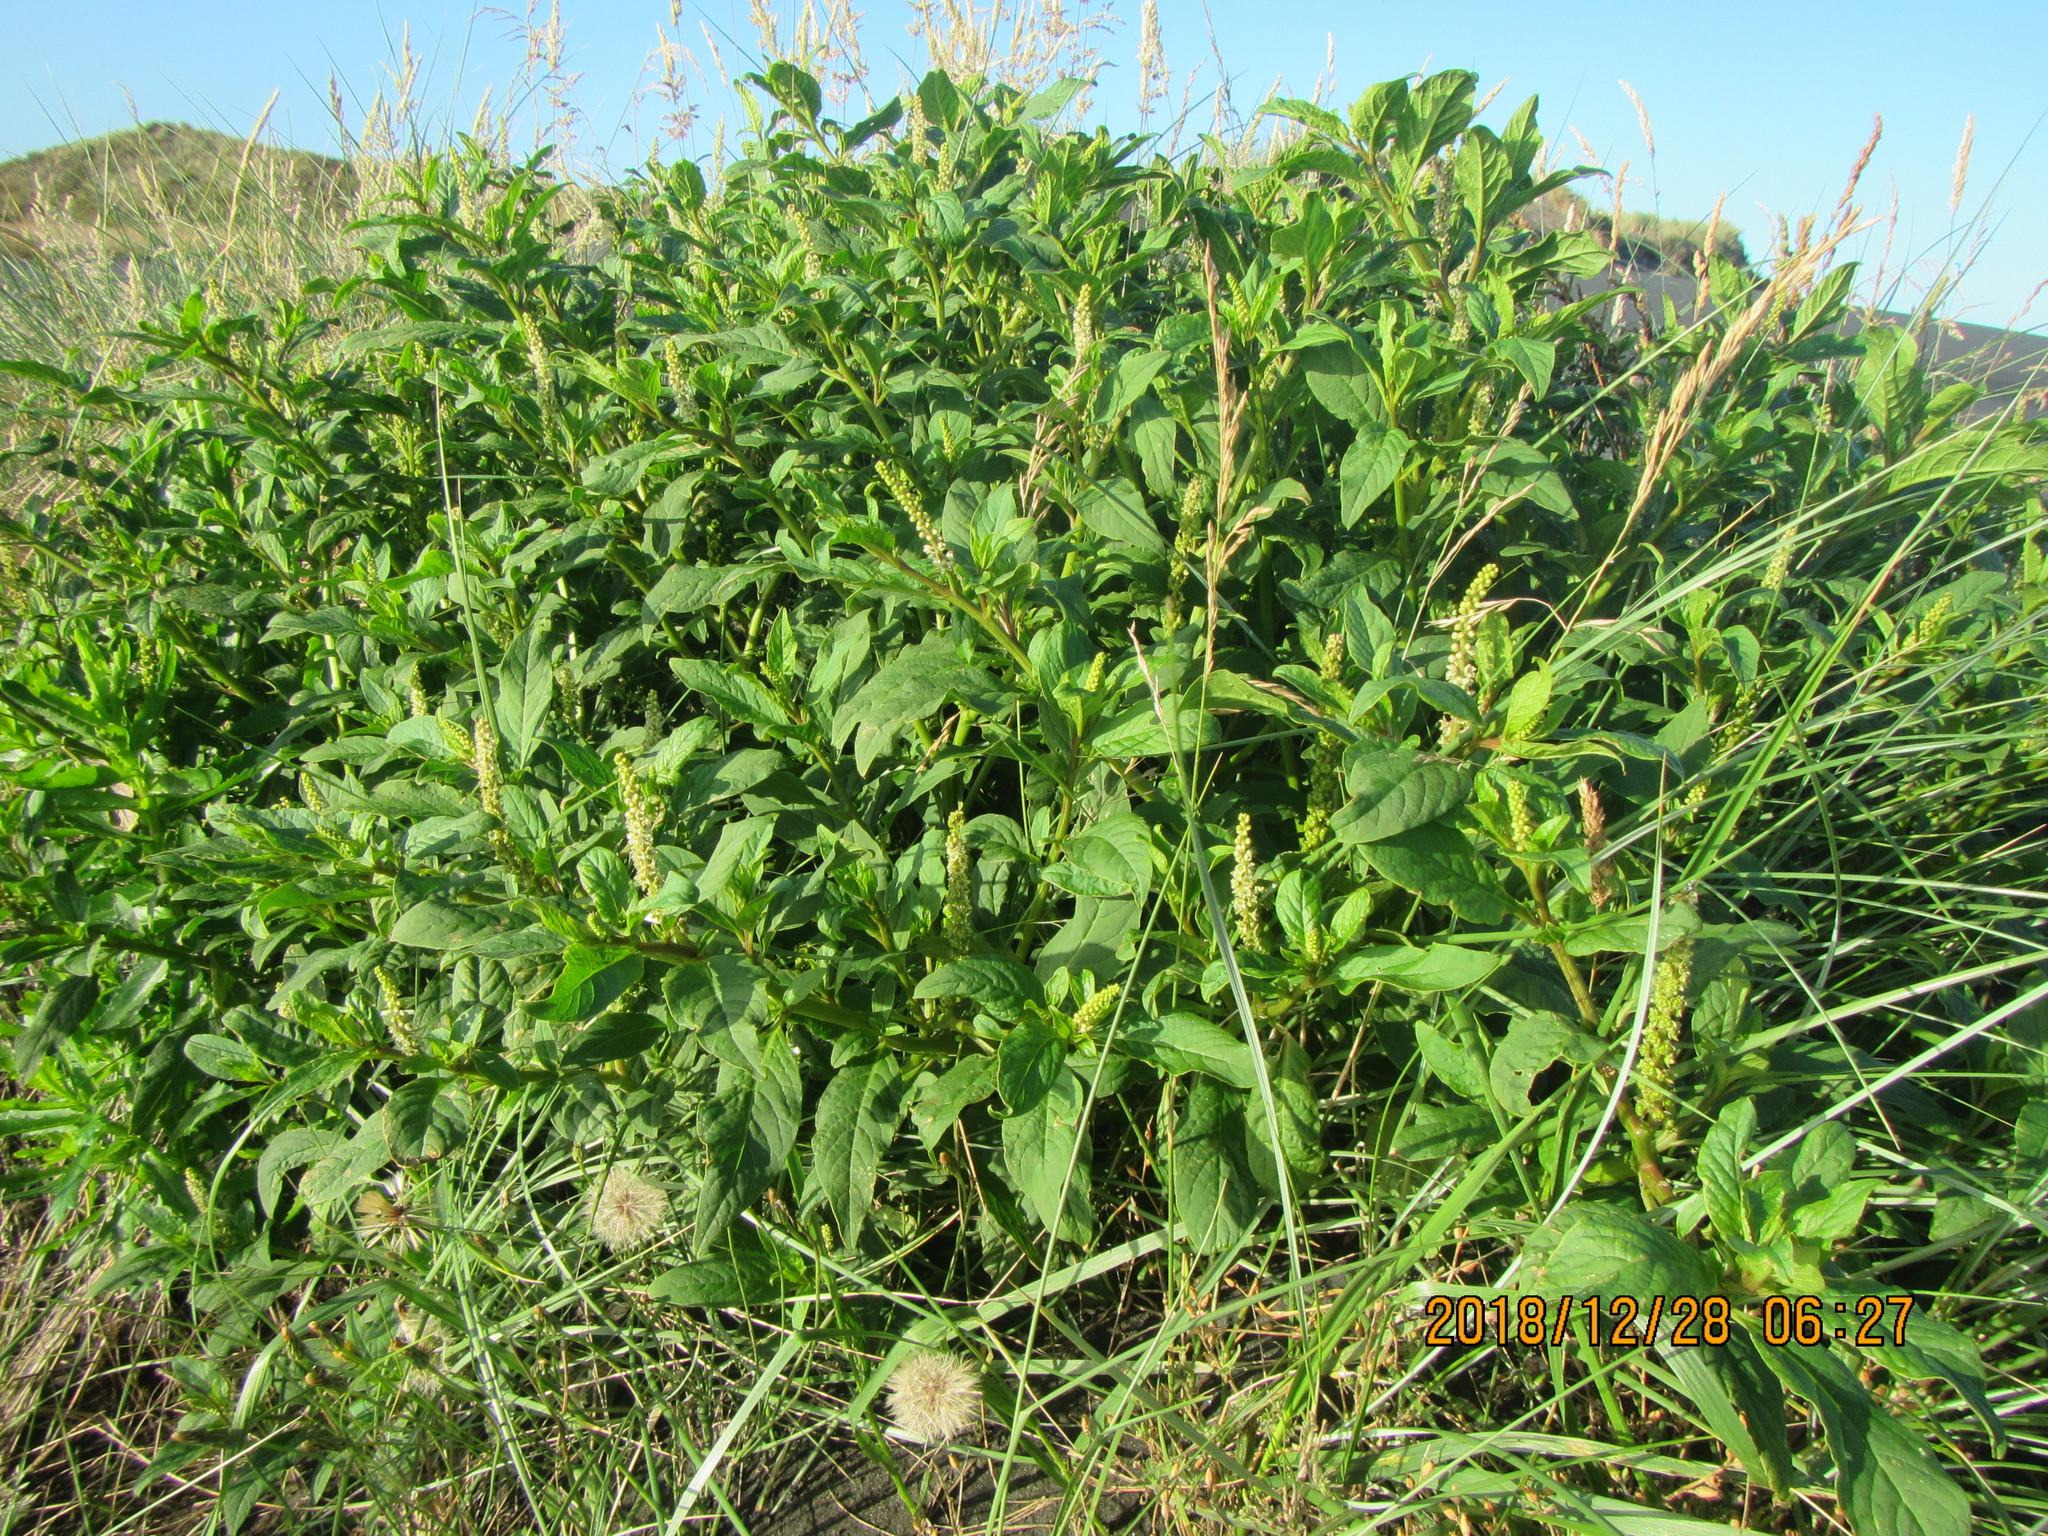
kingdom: Plantae
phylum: Tracheophyta
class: Magnoliopsida
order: Caryophyllales
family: Phytolaccaceae
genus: Phytolacca
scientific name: Phytolacca icosandra
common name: Button pokeweed
